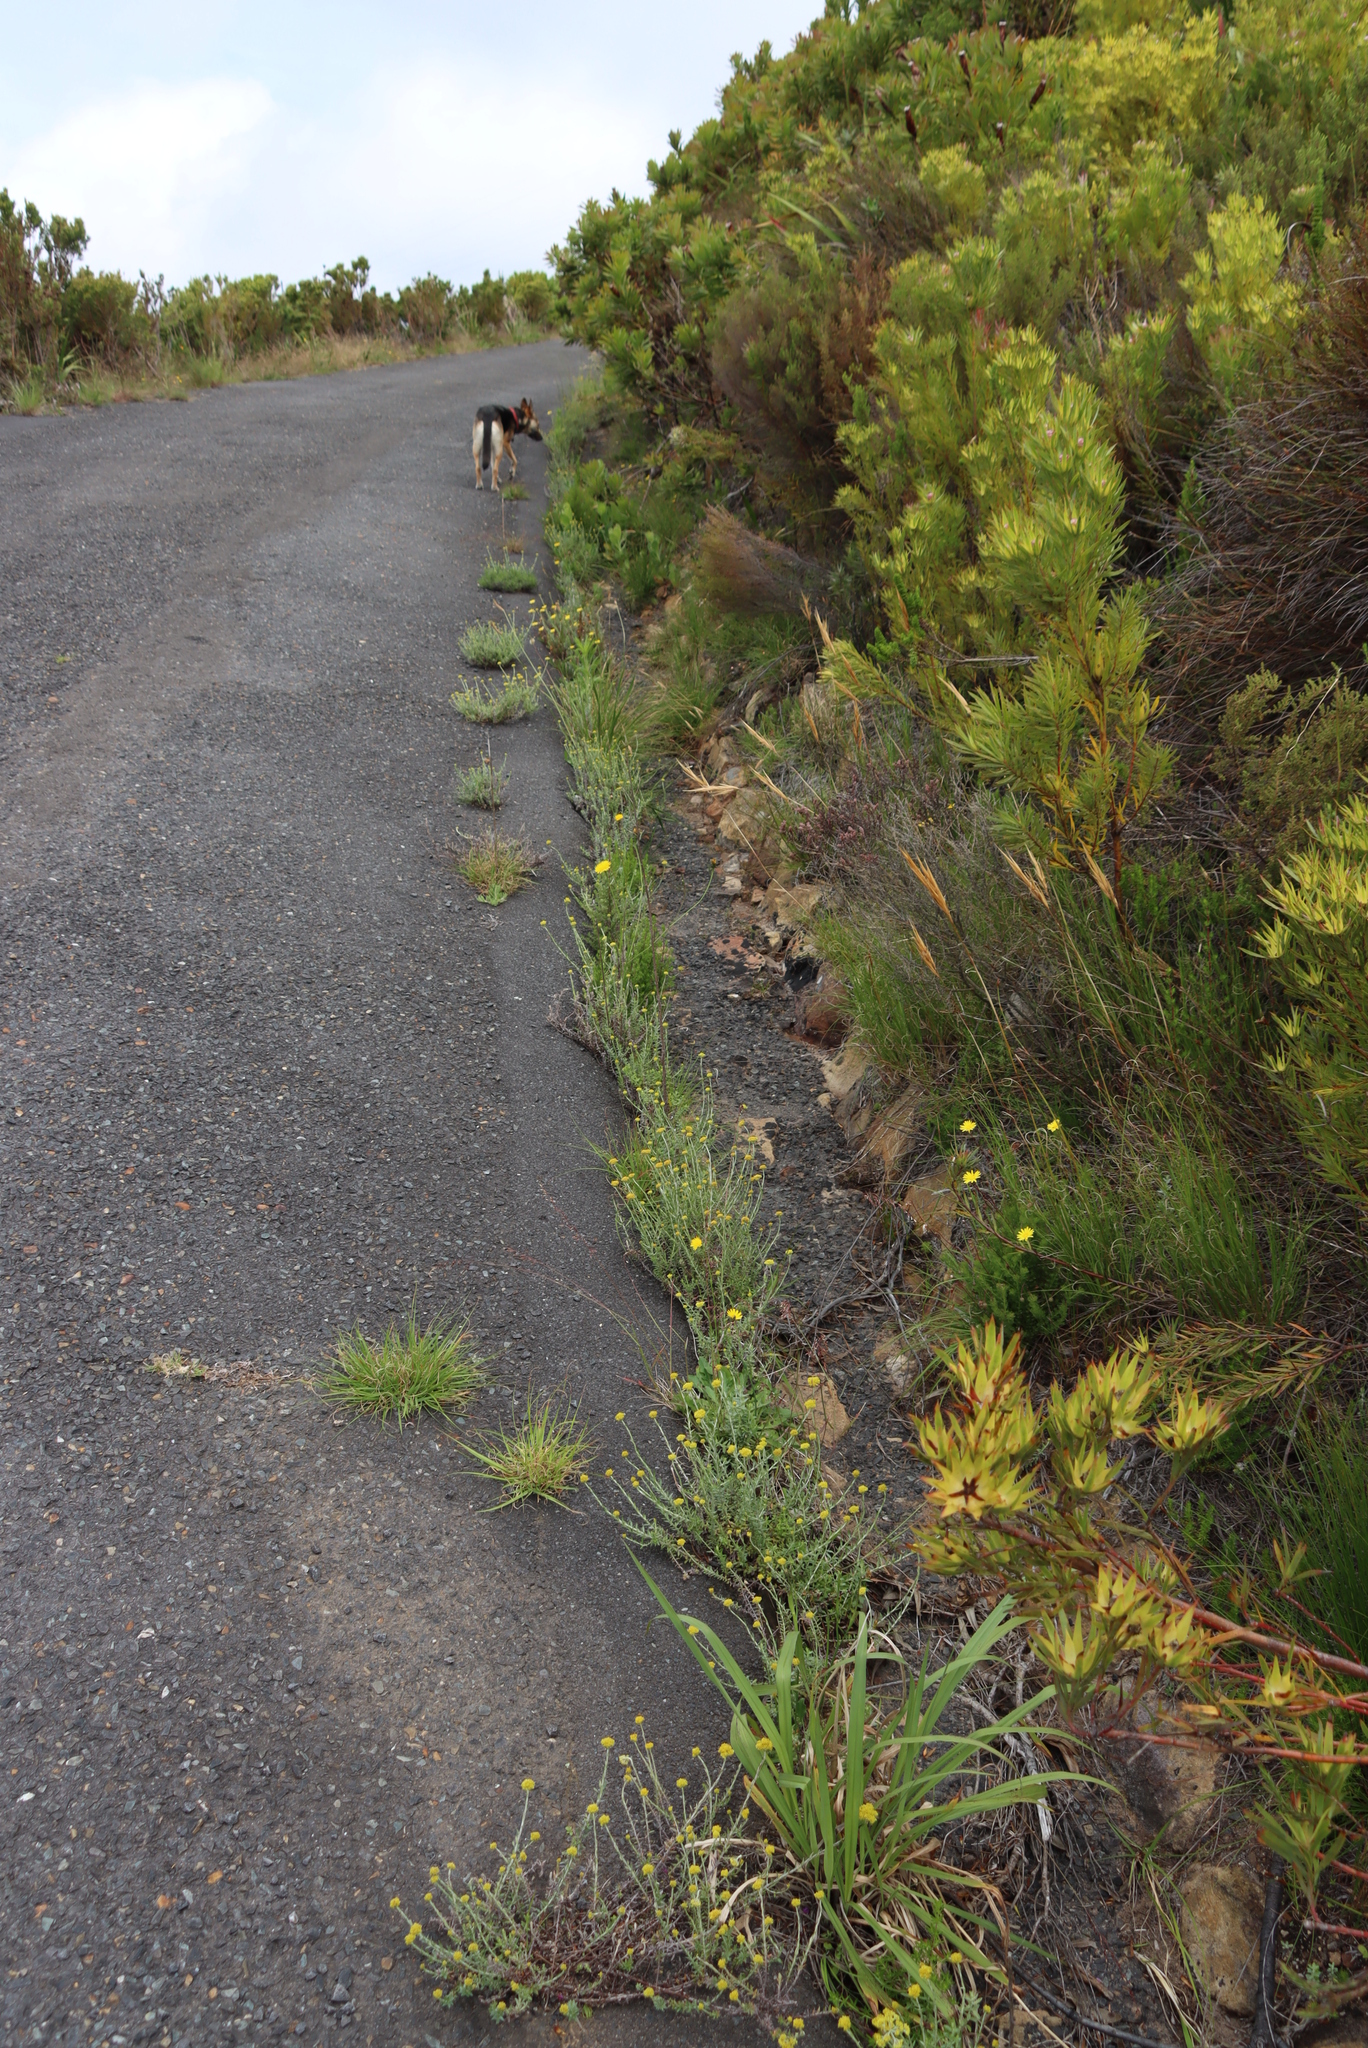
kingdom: Plantae
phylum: Tracheophyta
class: Magnoliopsida
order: Asterales
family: Asteraceae
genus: Helichrysum
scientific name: Helichrysum cymosum
